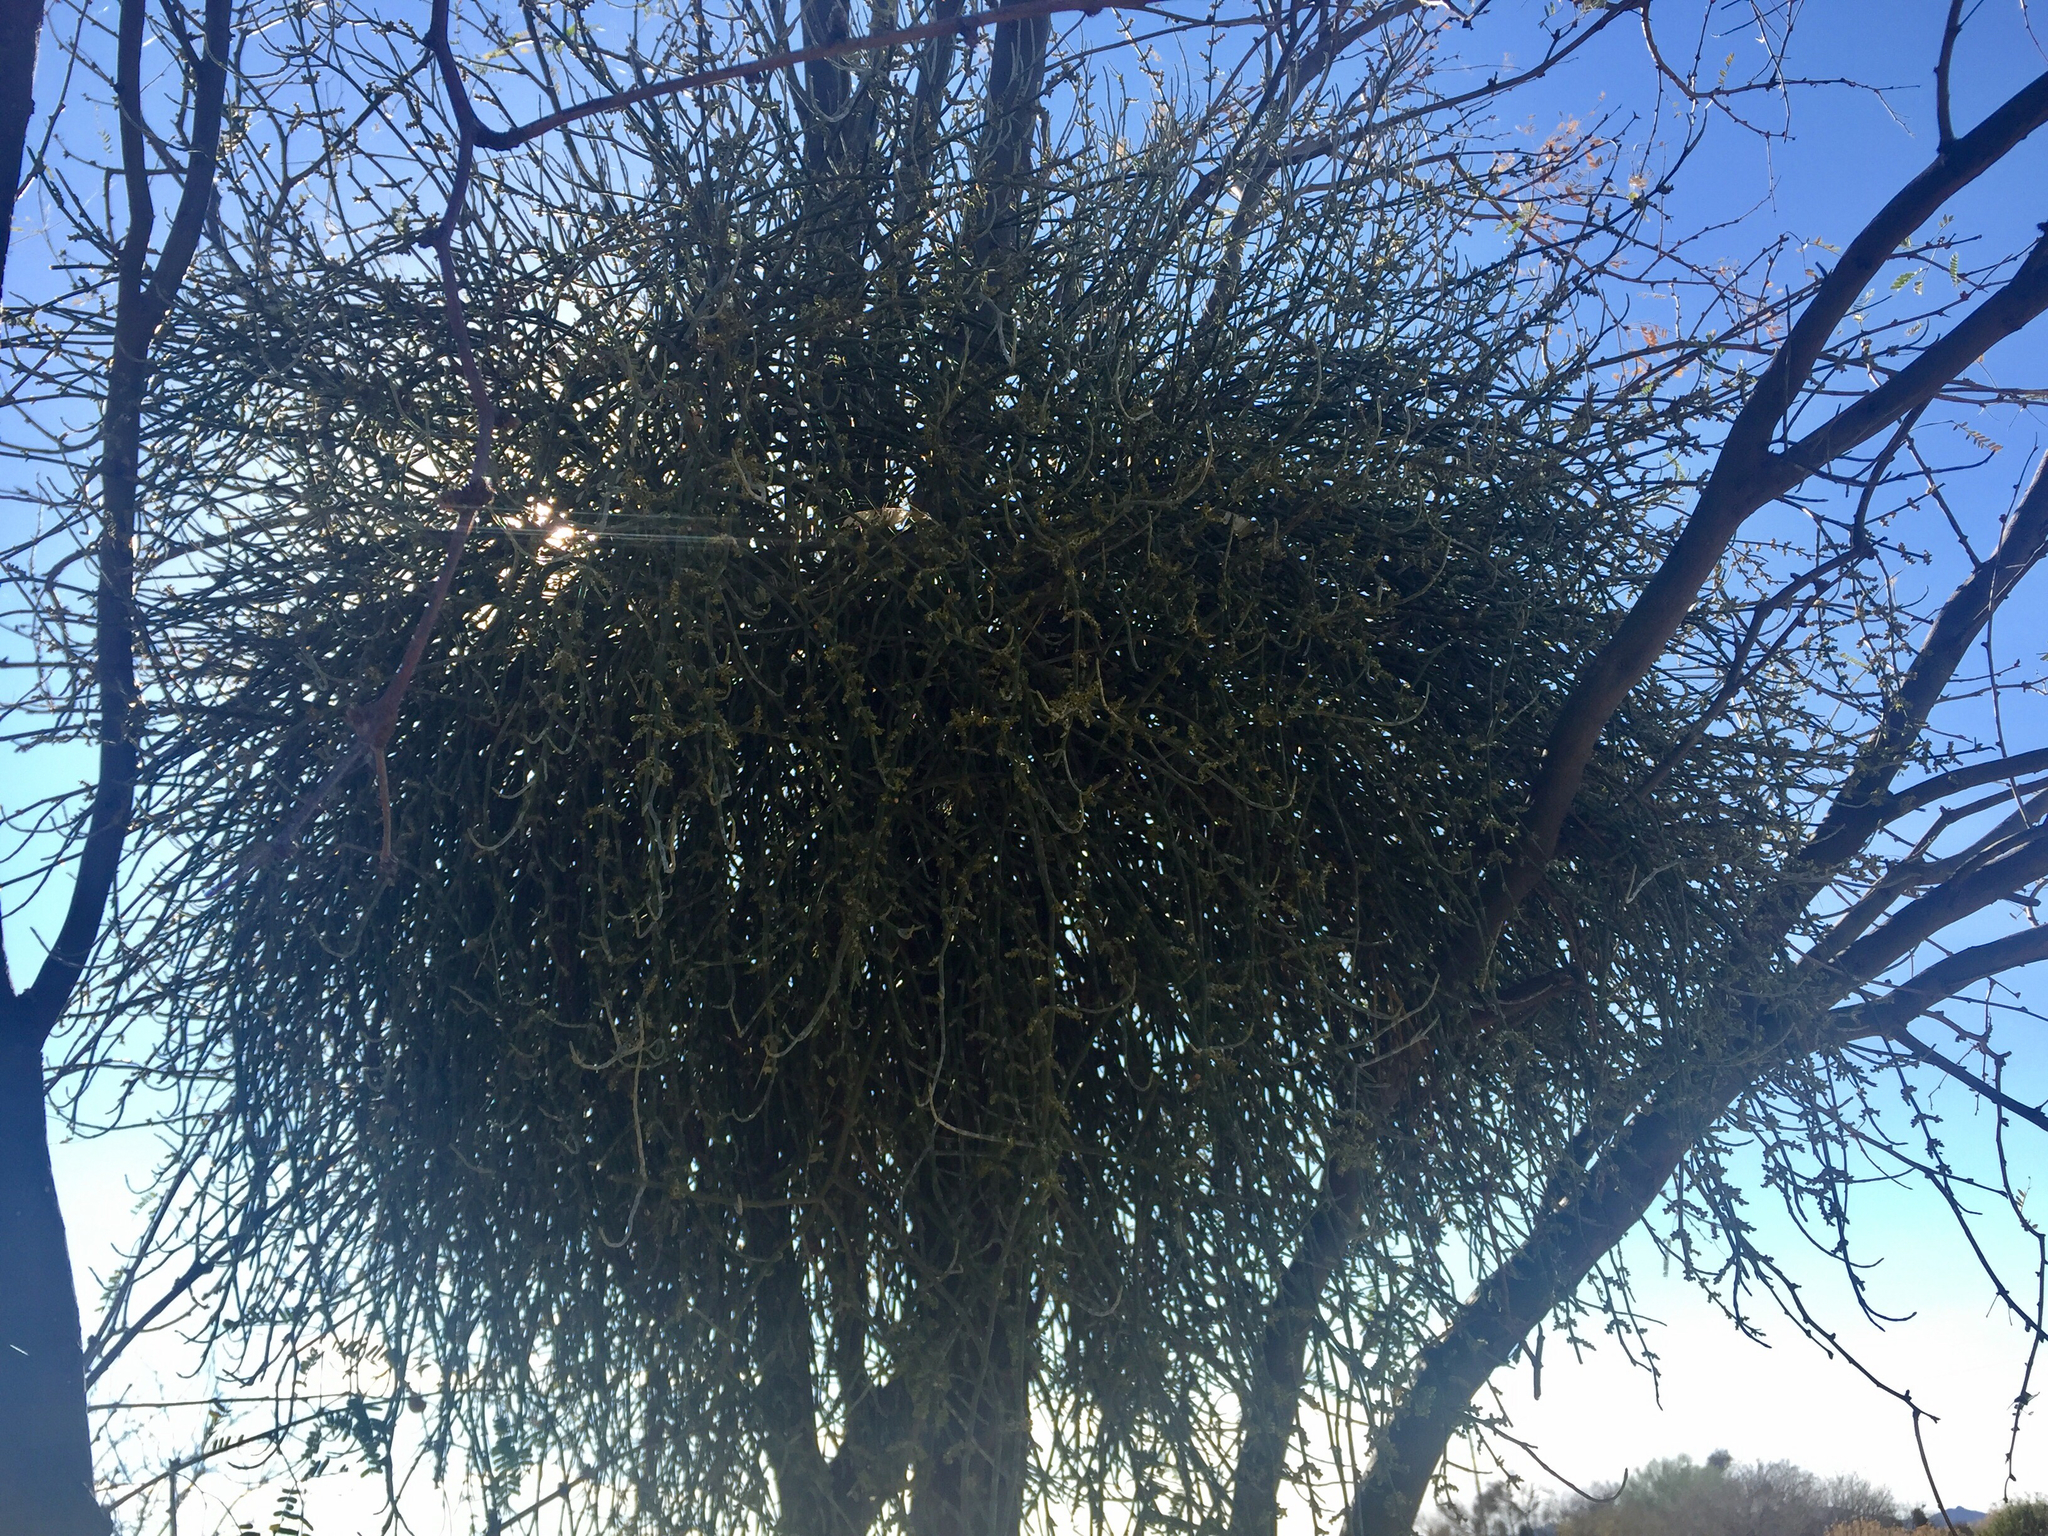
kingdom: Plantae
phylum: Tracheophyta
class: Magnoliopsida
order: Santalales
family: Viscaceae
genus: Phoradendron
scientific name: Phoradendron californicum
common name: Acacia mistletoe
